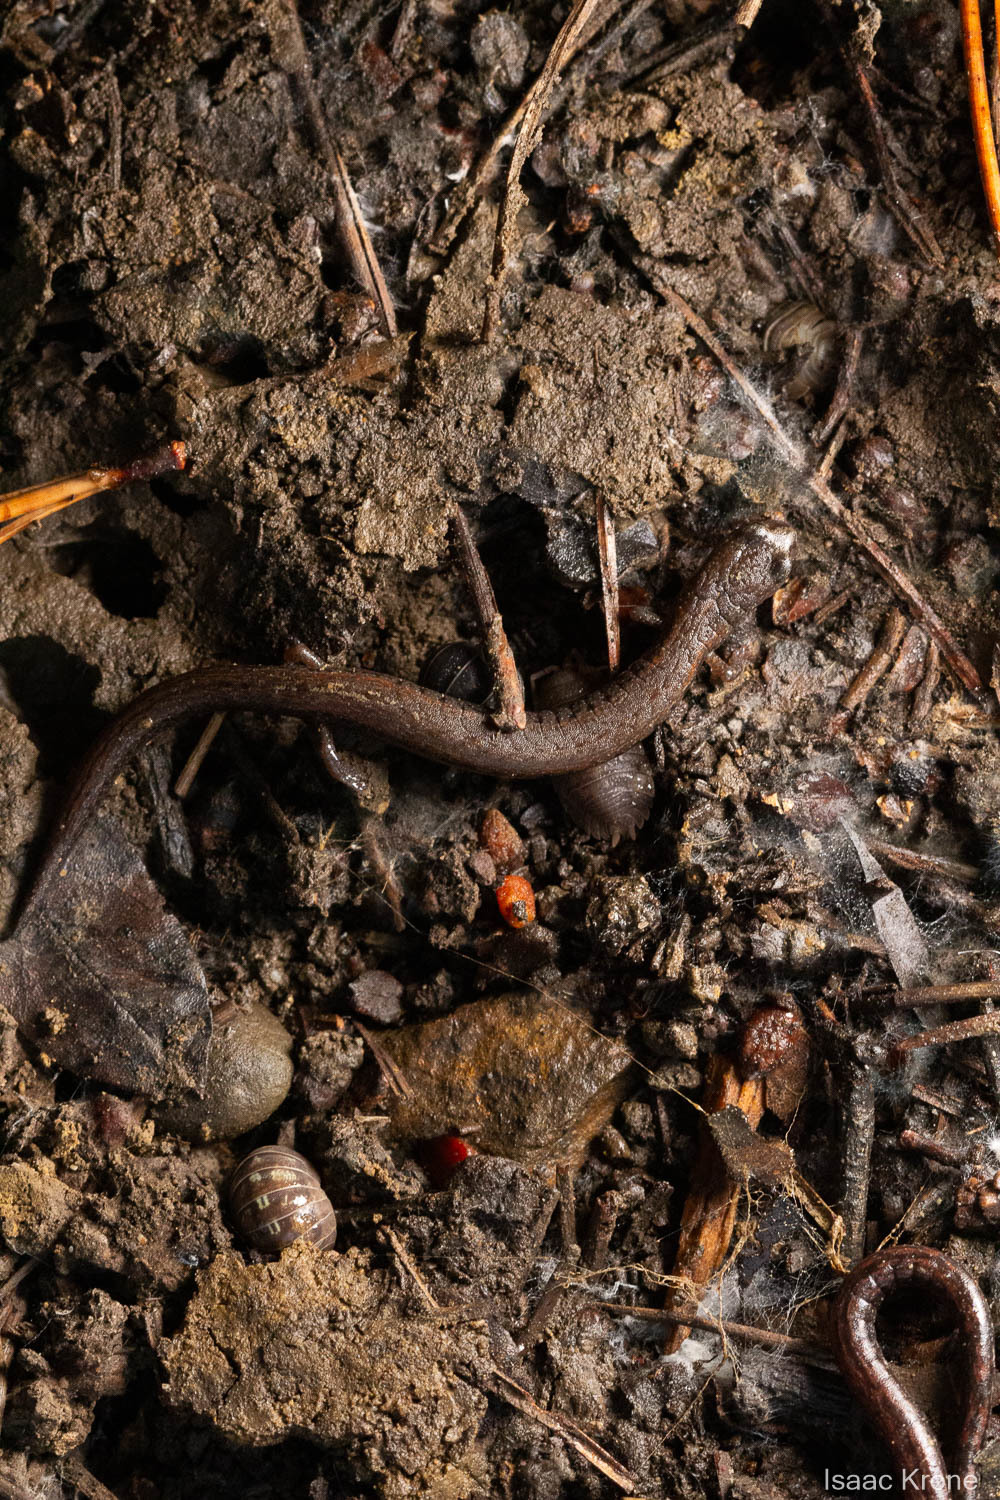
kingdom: Animalia
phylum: Chordata
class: Amphibia
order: Caudata
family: Plethodontidae
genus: Batrachoseps
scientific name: Batrachoseps attenuatus
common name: California slender salamander
